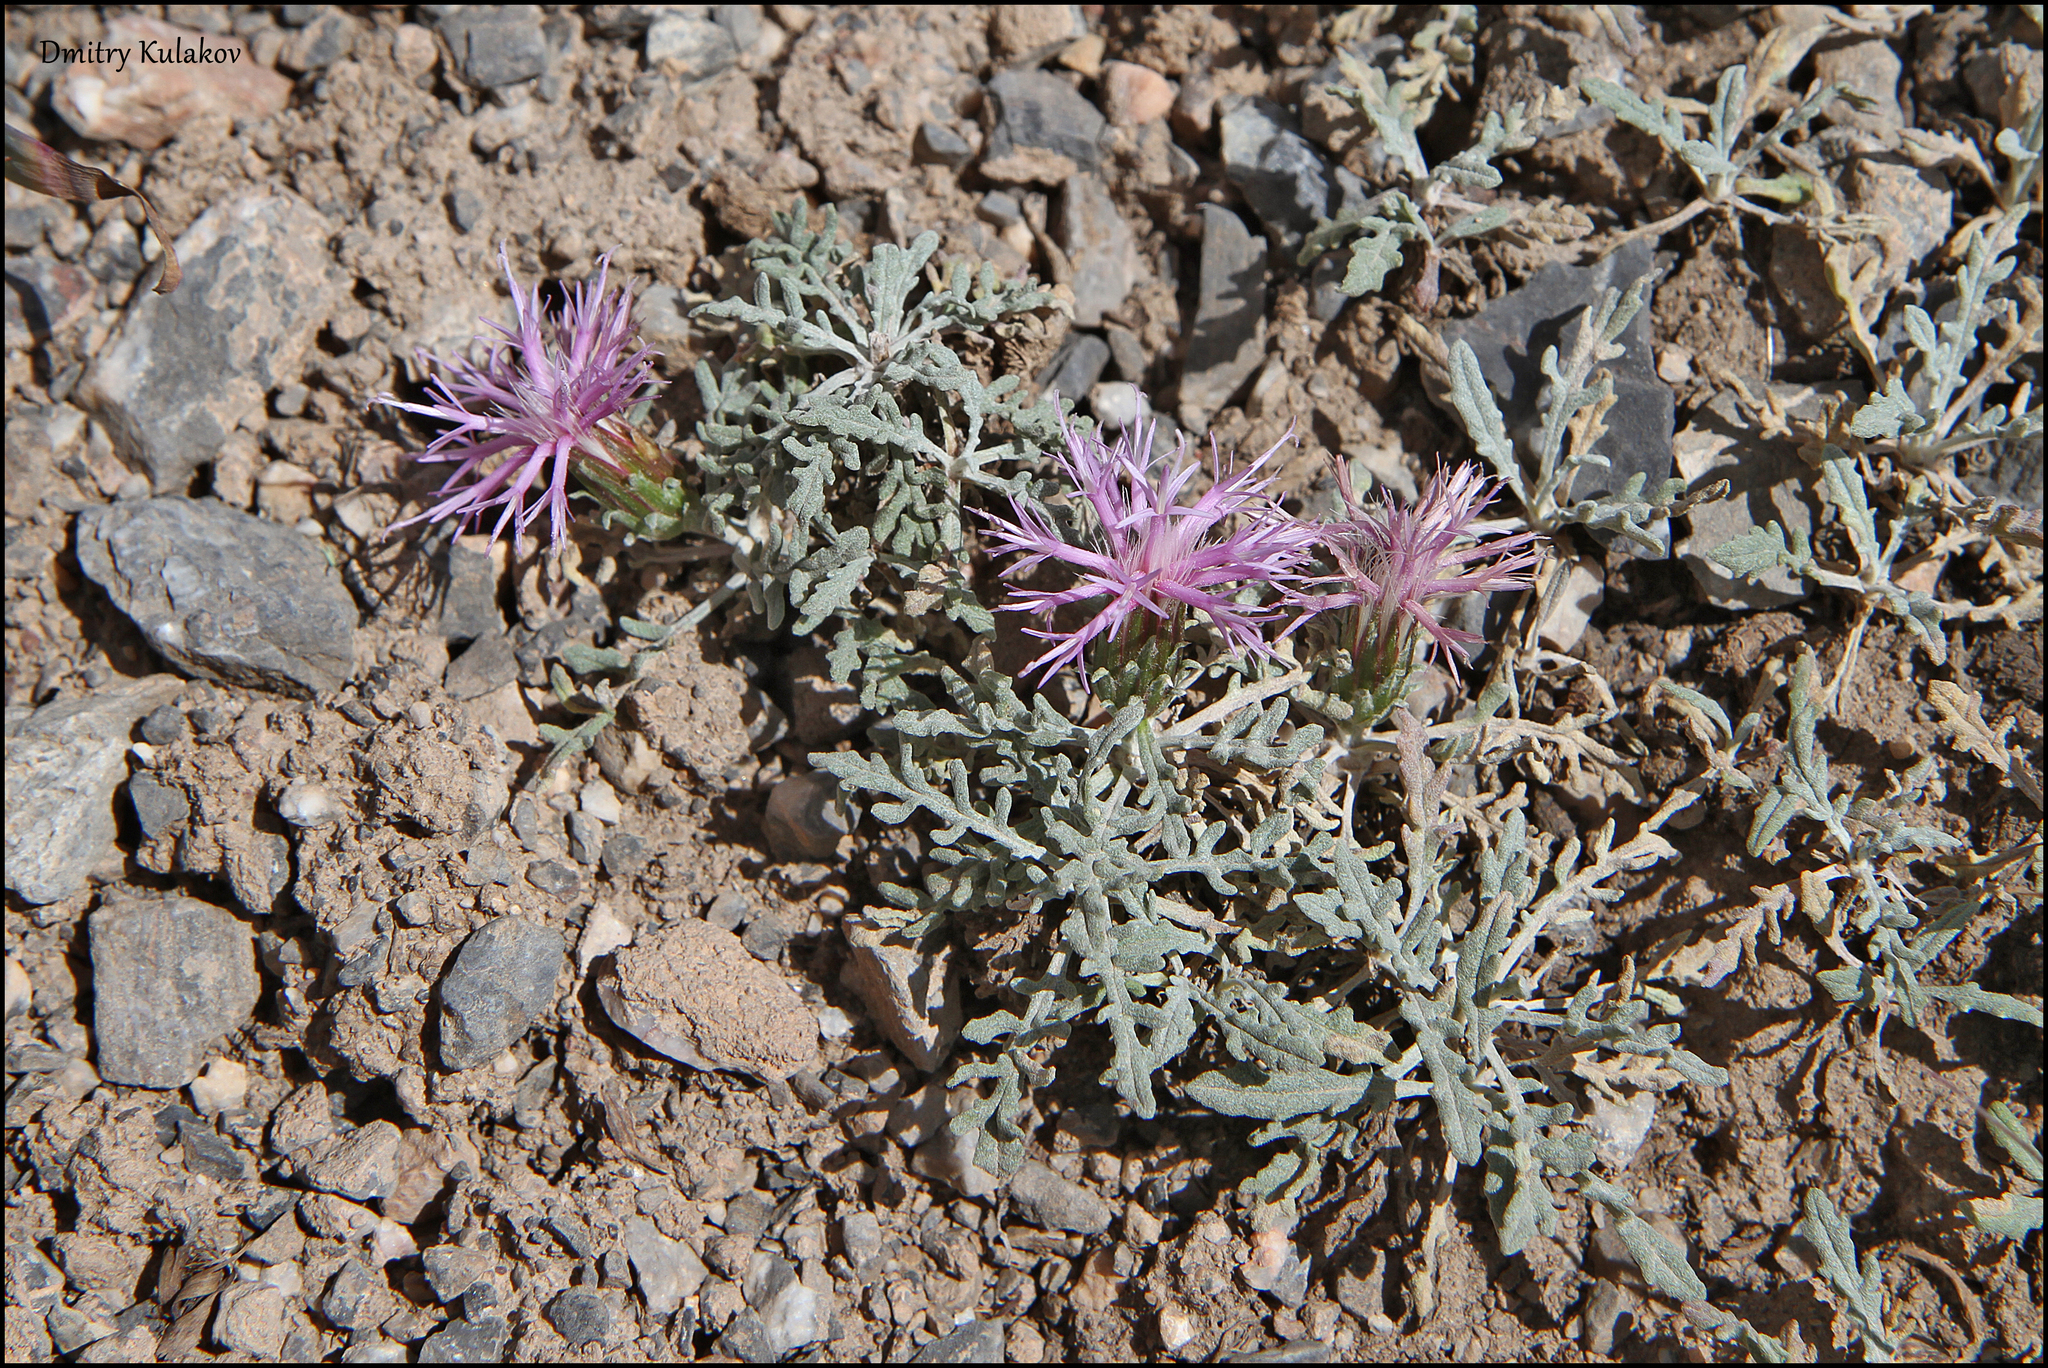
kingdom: Plantae
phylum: Tracheophyta
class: Magnoliopsida
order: Asterales
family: Asteraceae
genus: Jurinea
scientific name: Jurinea algida
